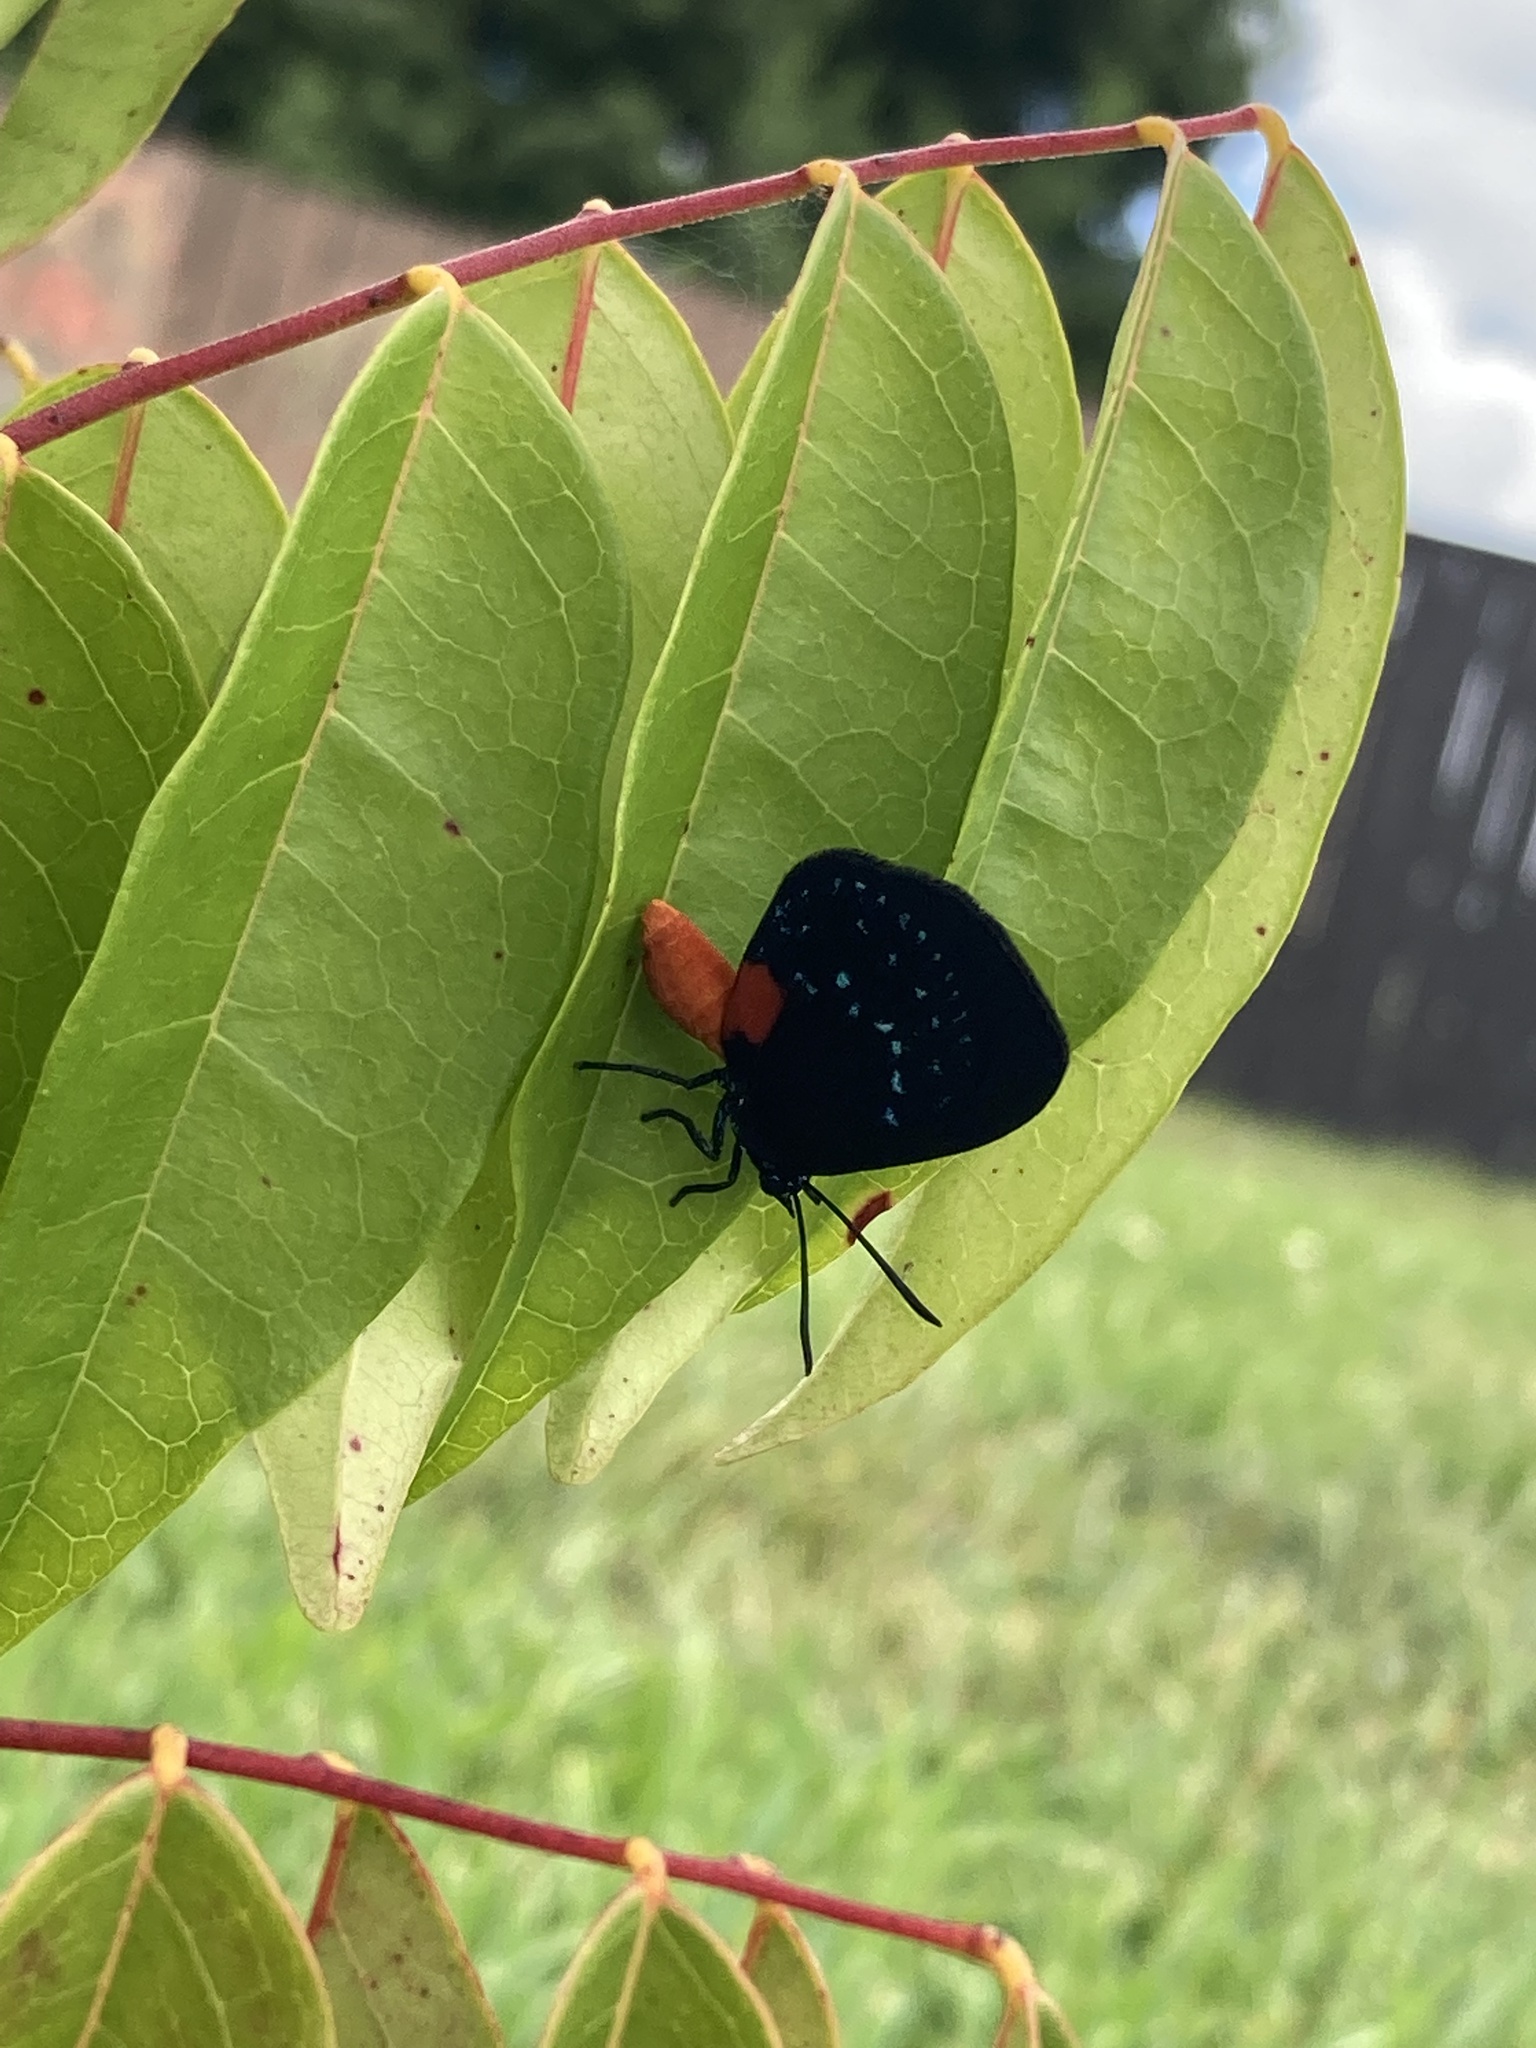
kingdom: Animalia
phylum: Arthropoda
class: Insecta
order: Lepidoptera
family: Lycaenidae
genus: Eumaeus
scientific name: Eumaeus atala
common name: Atala
